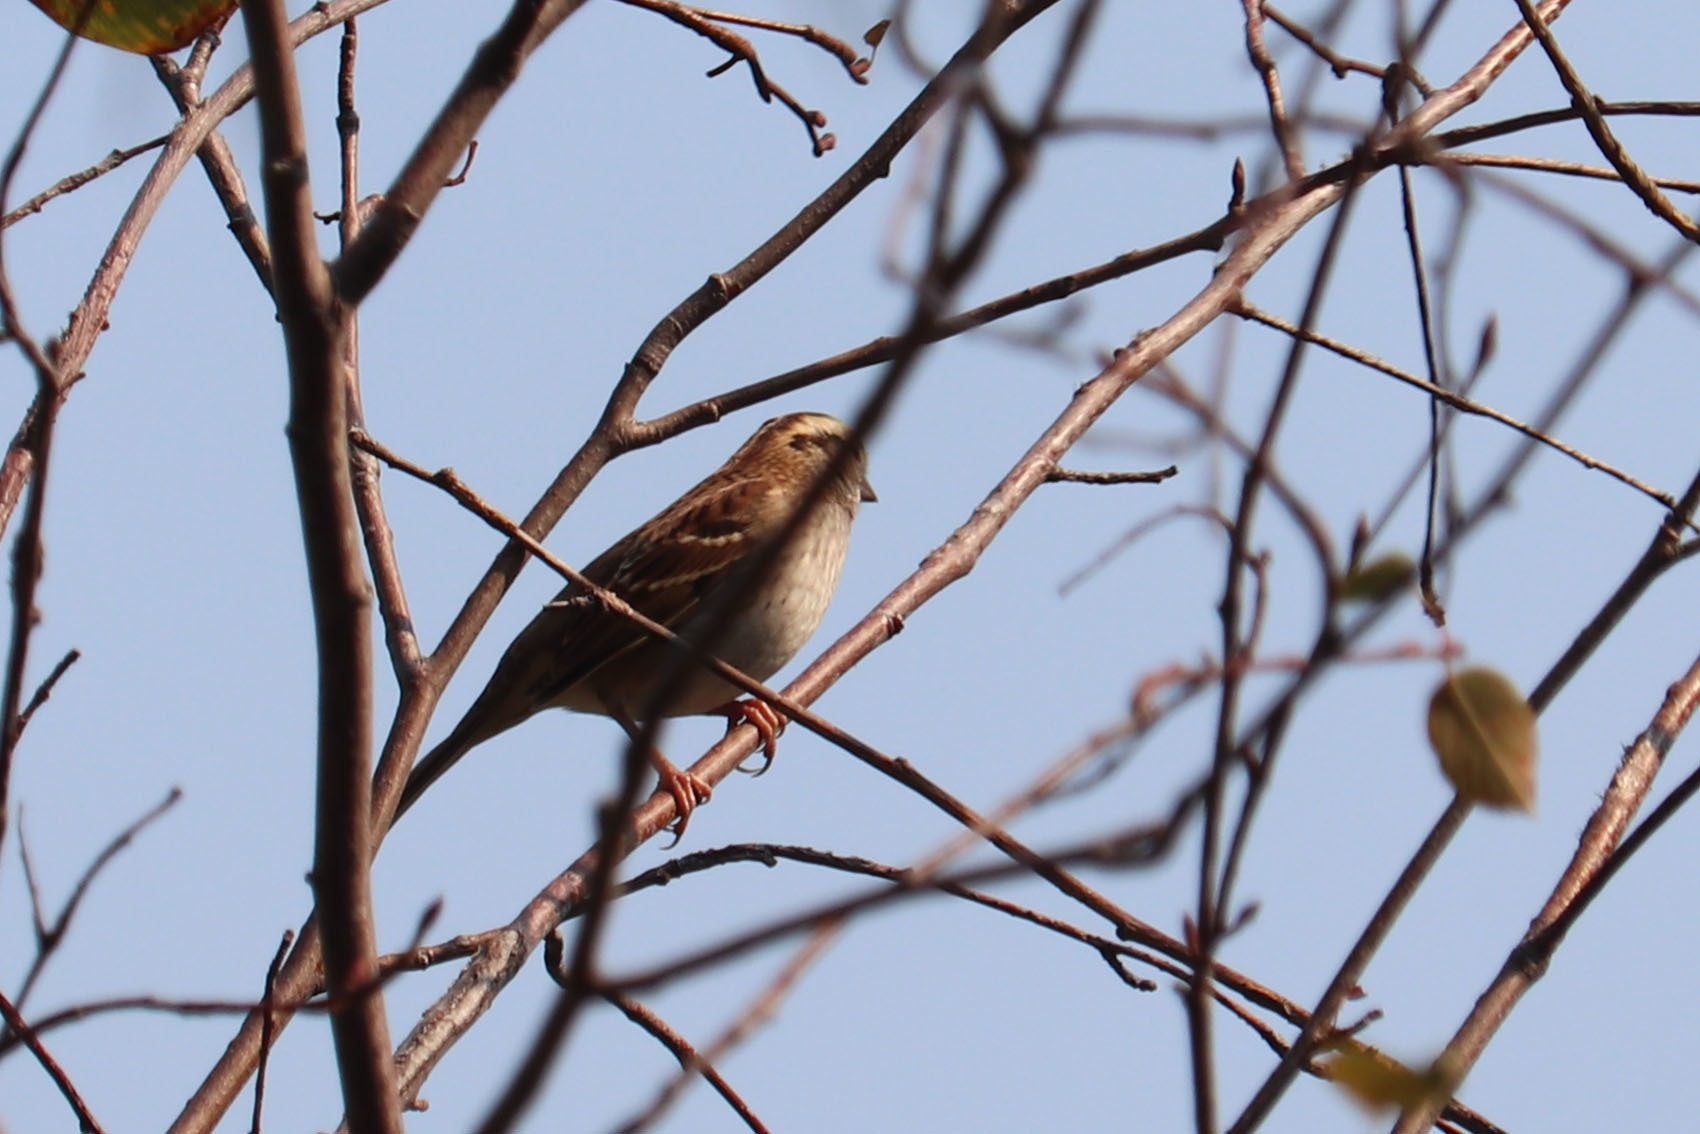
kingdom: Animalia
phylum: Chordata
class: Aves
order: Passeriformes
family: Passerellidae
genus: Zonotrichia
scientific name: Zonotrichia albicollis
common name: White-throated sparrow
